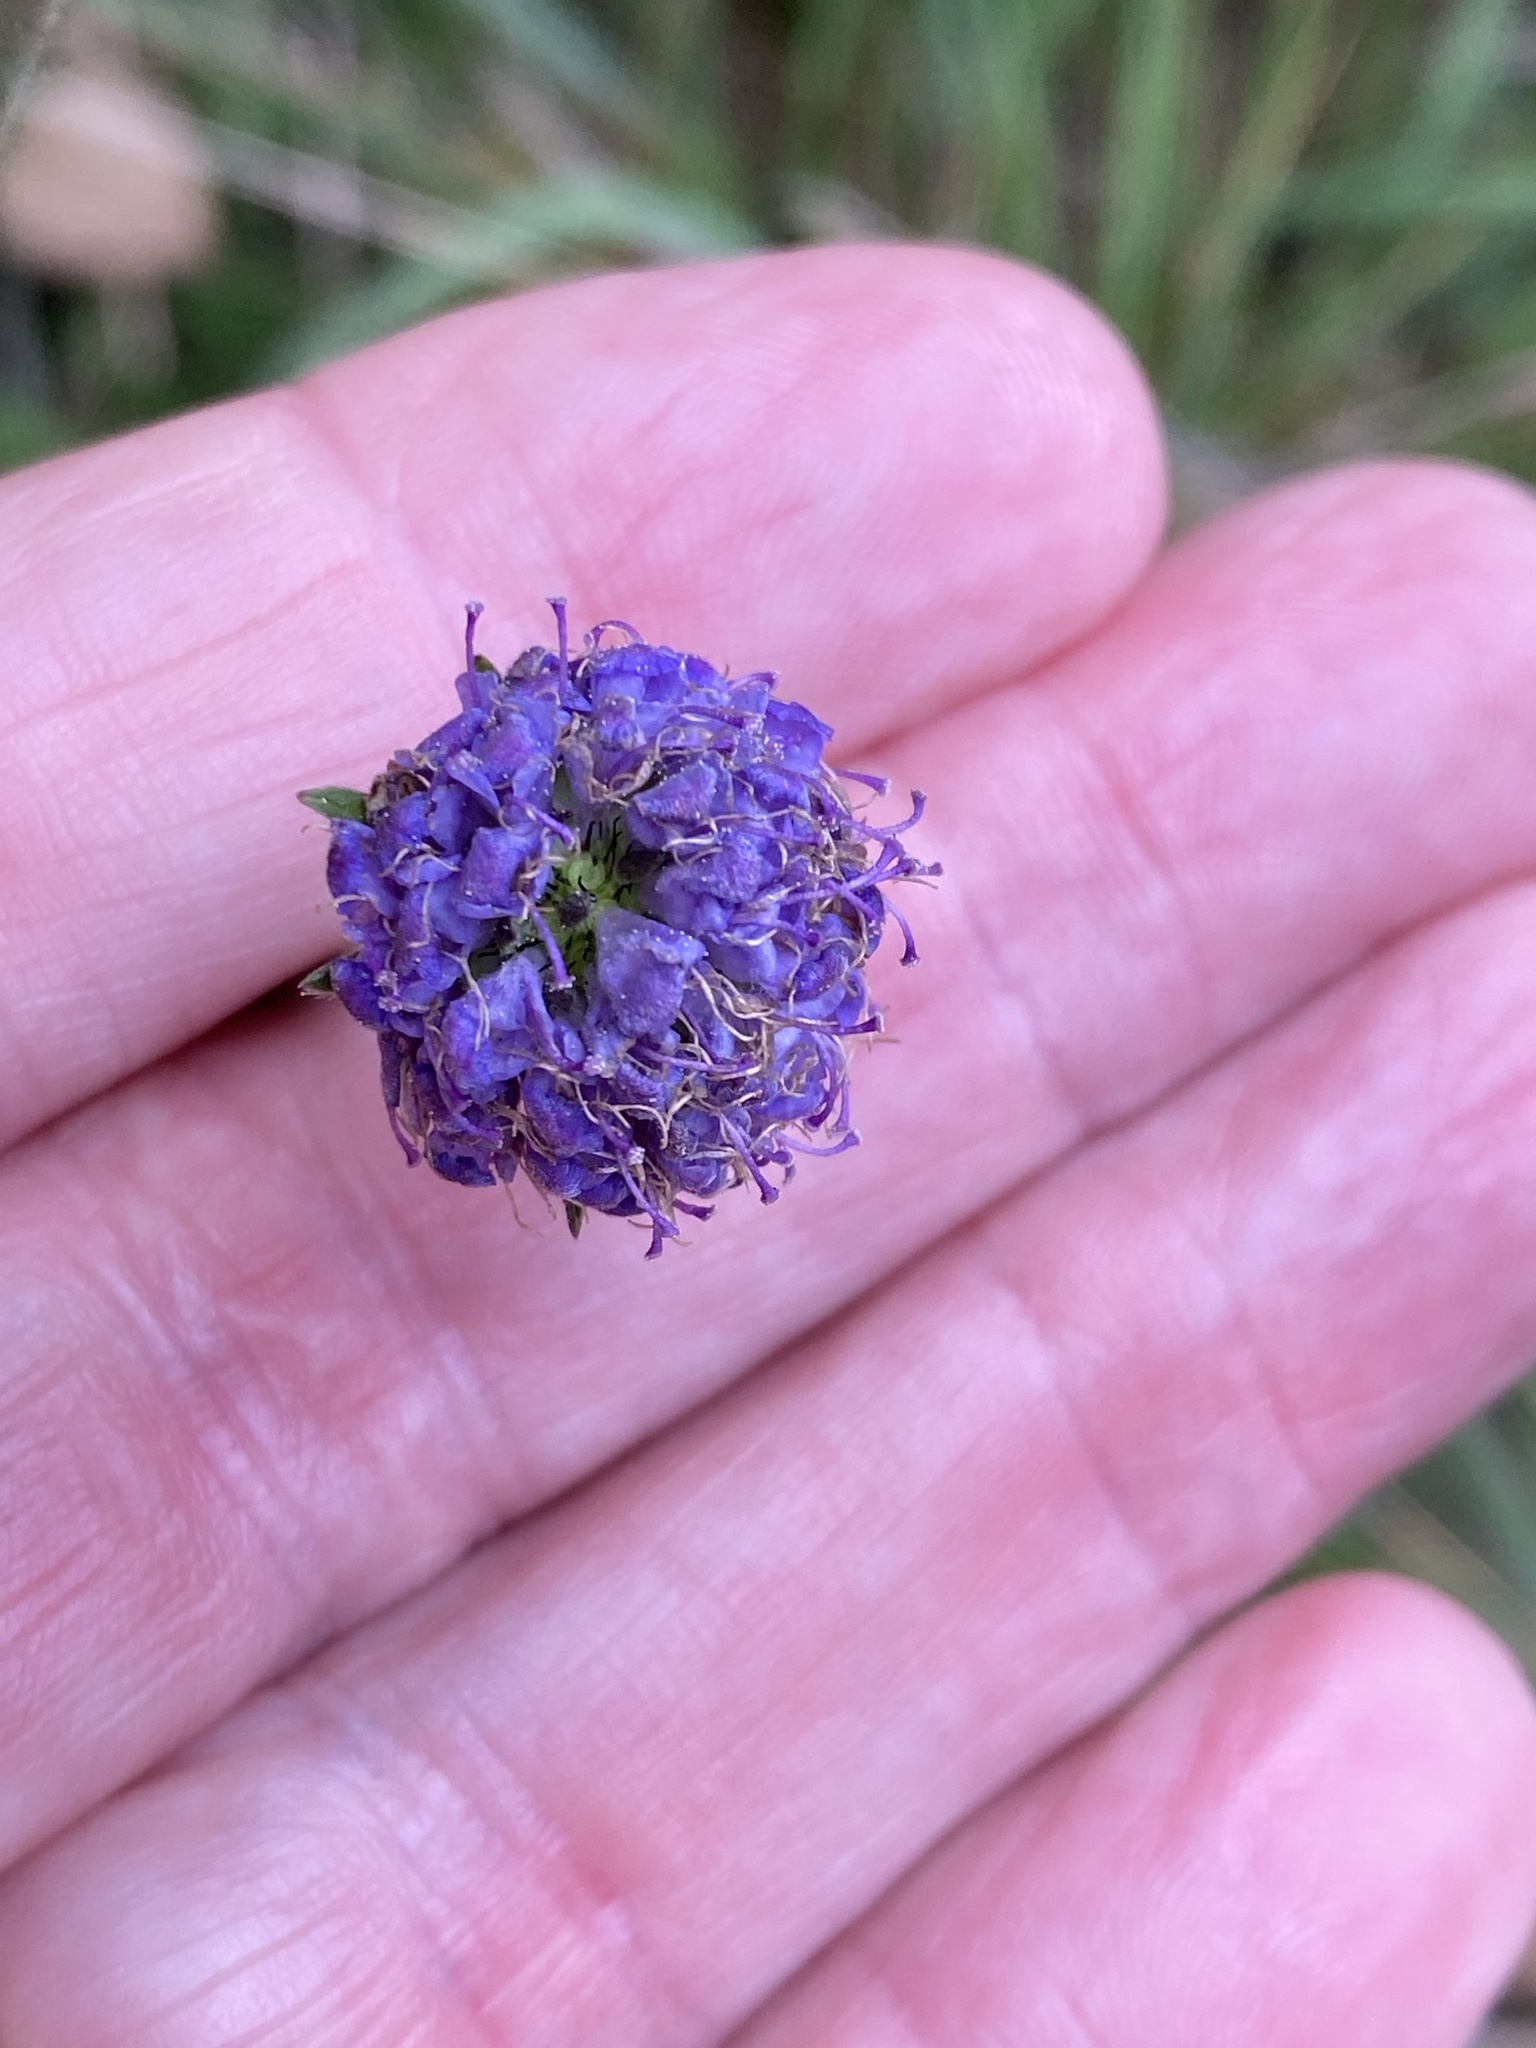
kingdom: Plantae
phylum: Tracheophyta
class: Magnoliopsida
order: Dipsacales
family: Caprifoliaceae
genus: Succisa
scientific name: Succisa pratensis
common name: Devil's-bit
